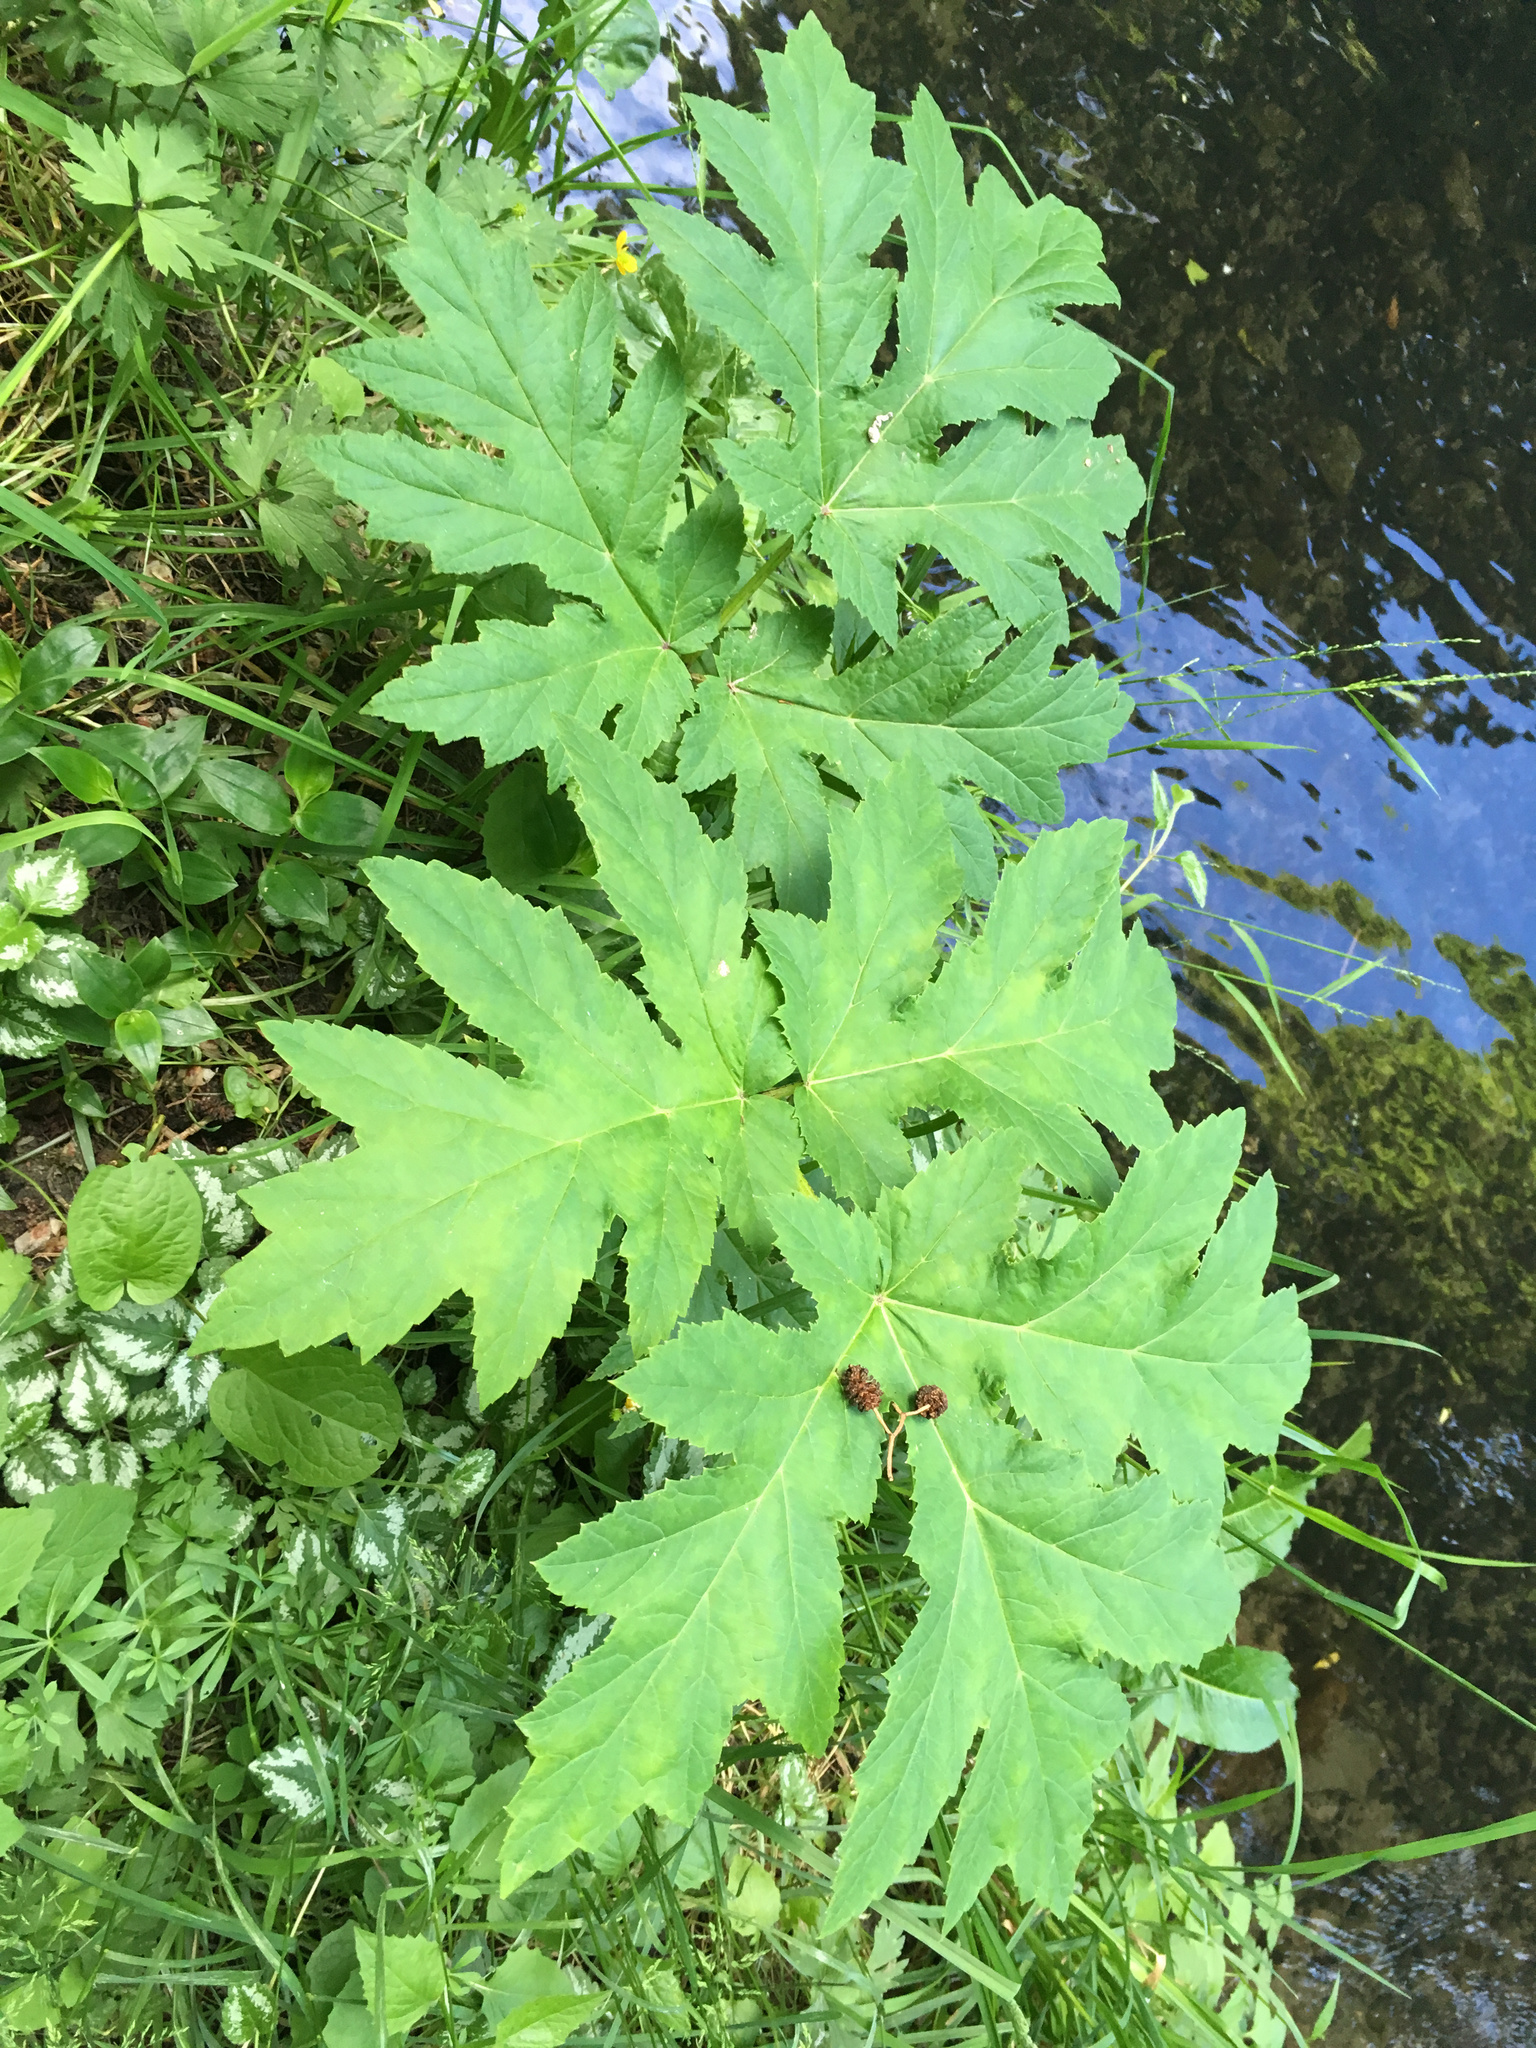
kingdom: Plantae
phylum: Tracheophyta
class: Magnoliopsida
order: Apiales
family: Apiaceae
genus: Heracleum
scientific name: Heracleum mantegazzianum
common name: Giant hogweed
